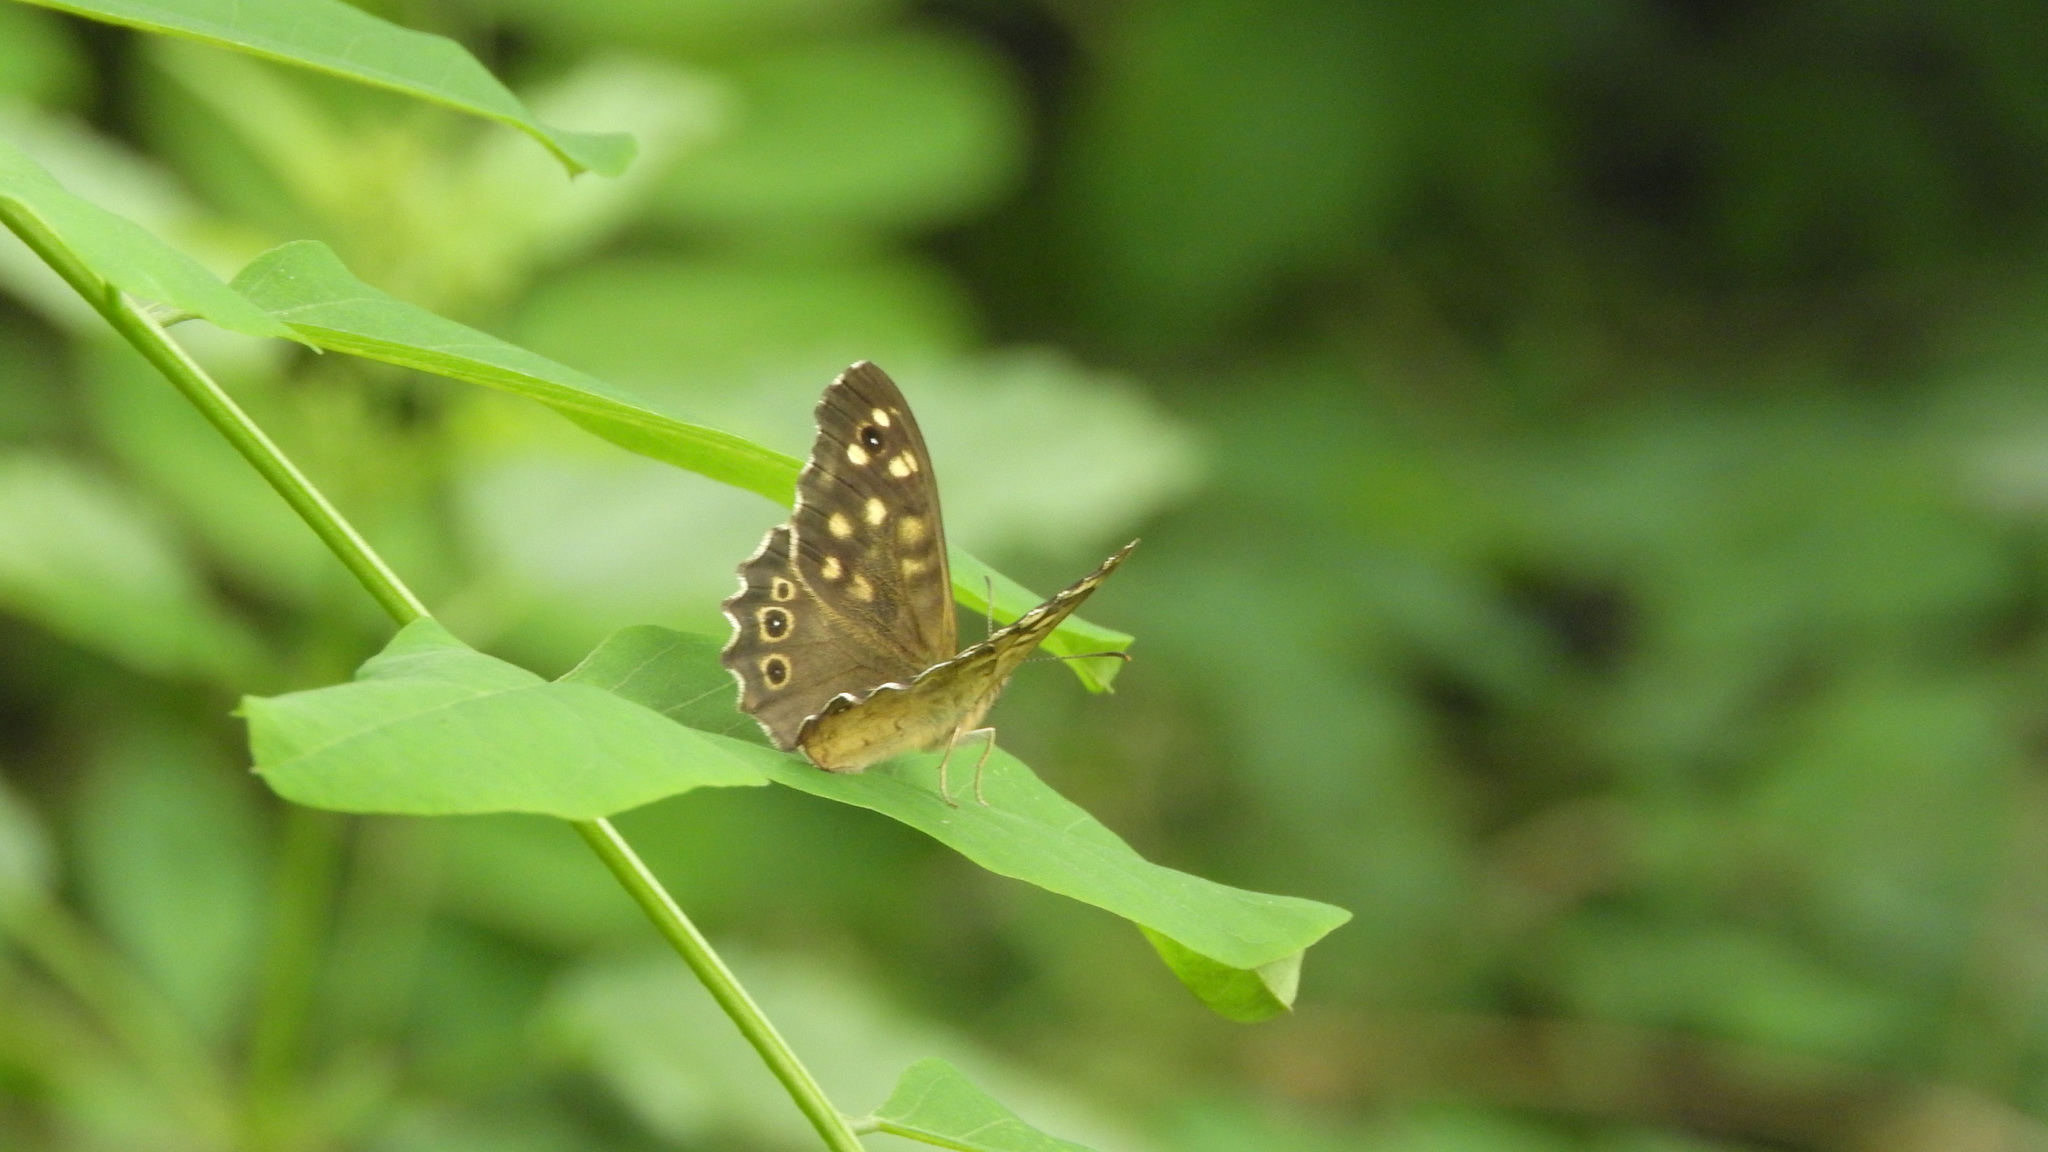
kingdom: Animalia
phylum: Arthropoda
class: Insecta
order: Lepidoptera
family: Nymphalidae
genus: Pararge
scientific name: Pararge aegeria
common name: Speckled wood
